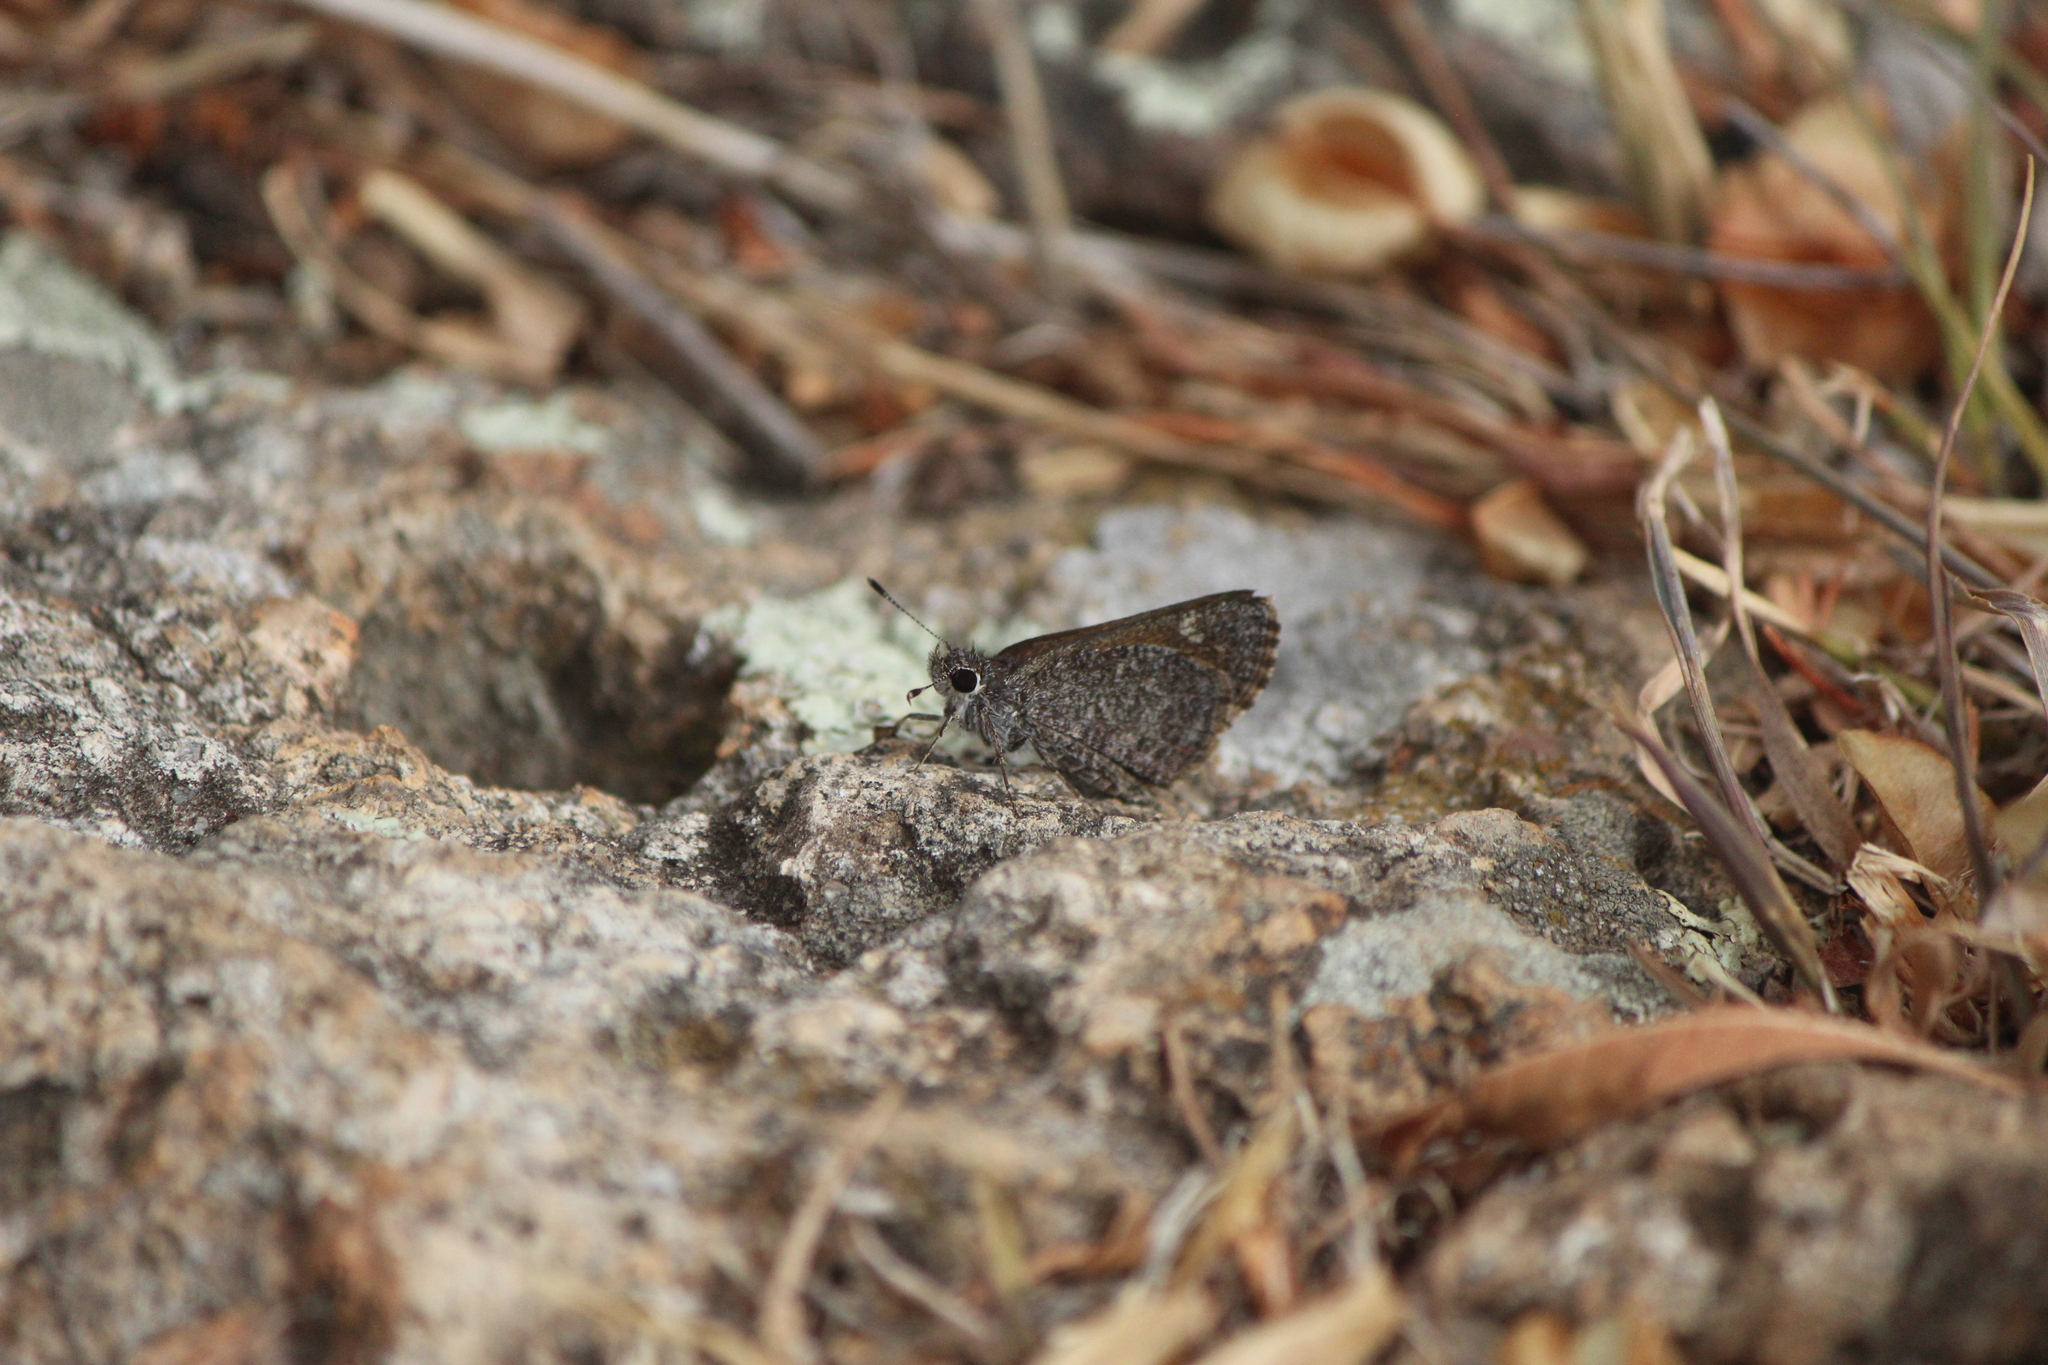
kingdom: Animalia
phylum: Arthropoda
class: Insecta
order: Lepidoptera
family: Hesperiidae
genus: Mastor
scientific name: Mastor fluonia
